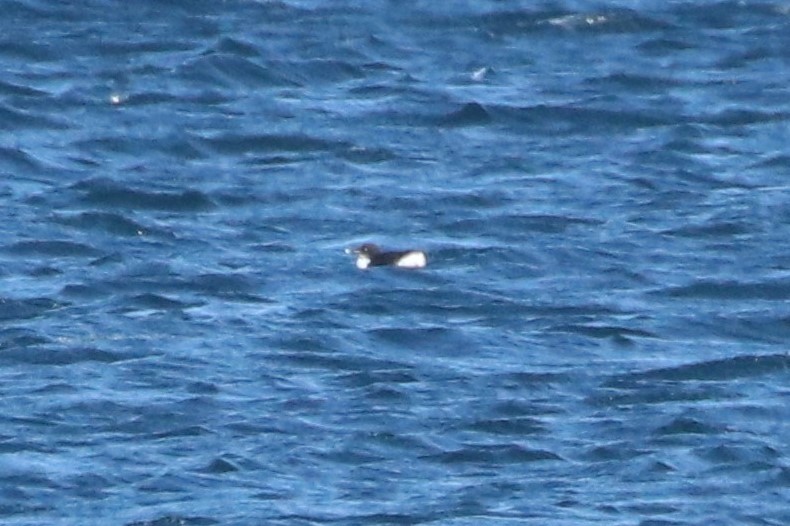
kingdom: Animalia
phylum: Chordata
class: Aves
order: Charadriiformes
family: Alcidae
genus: Uria
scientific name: Uria lomvia
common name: Thick-billed murre
